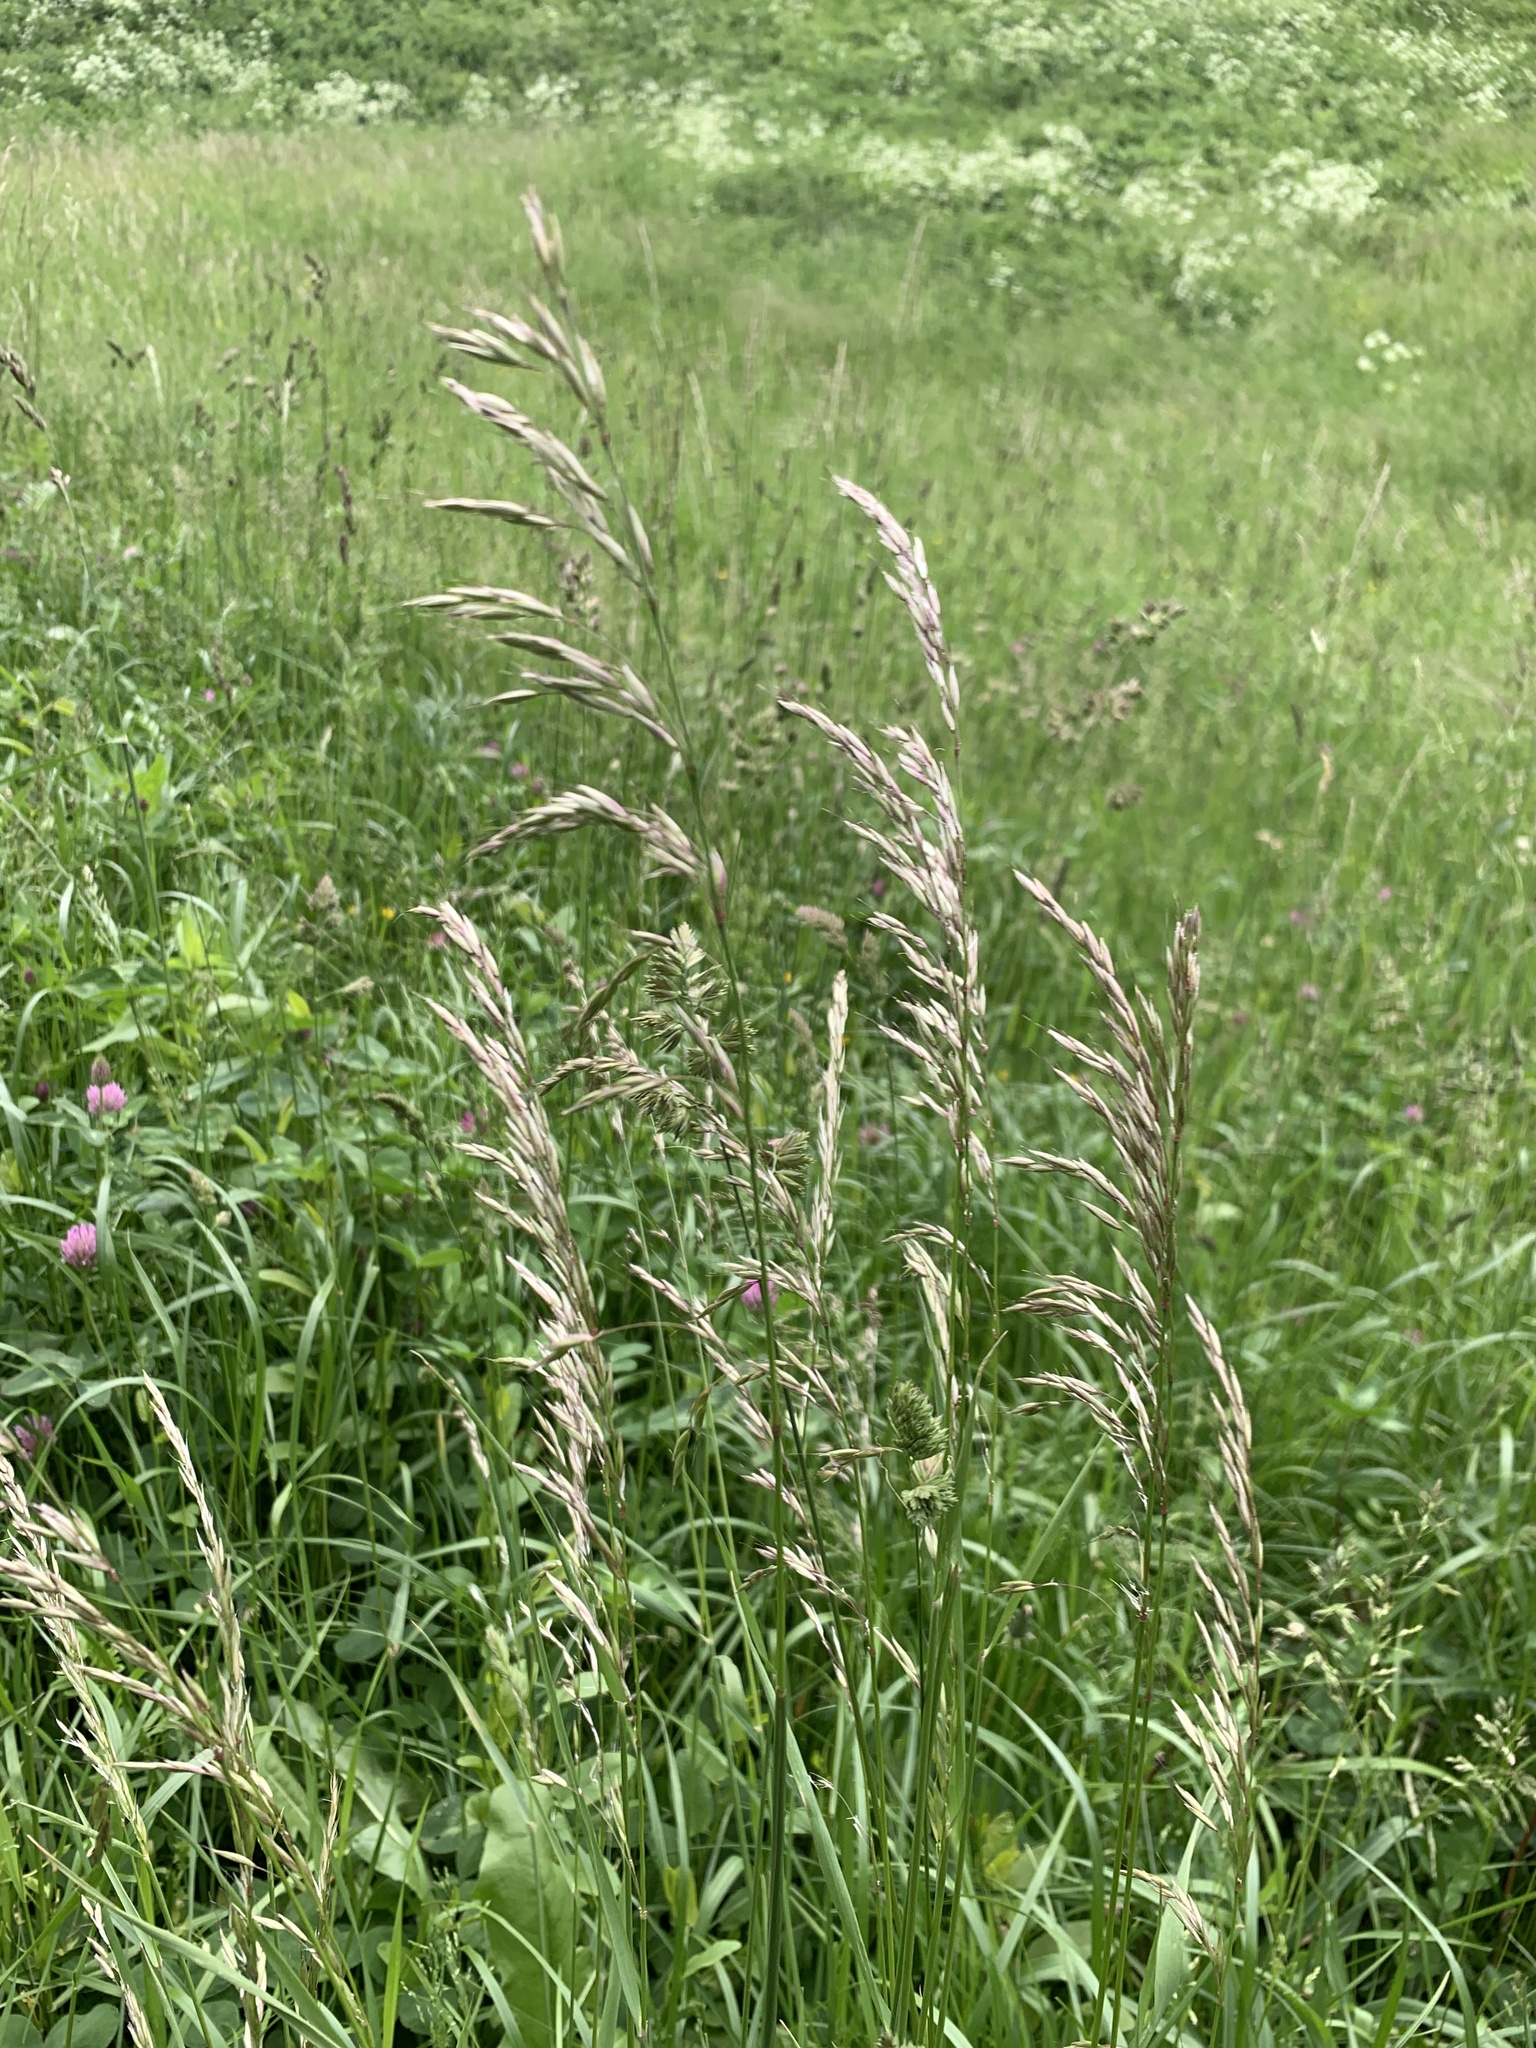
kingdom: Plantae
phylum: Tracheophyta
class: Liliopsida
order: Poales
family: Poaceae
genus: Arrhenatherum
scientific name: Arrhenatherum elatius
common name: Tall oatgrass
